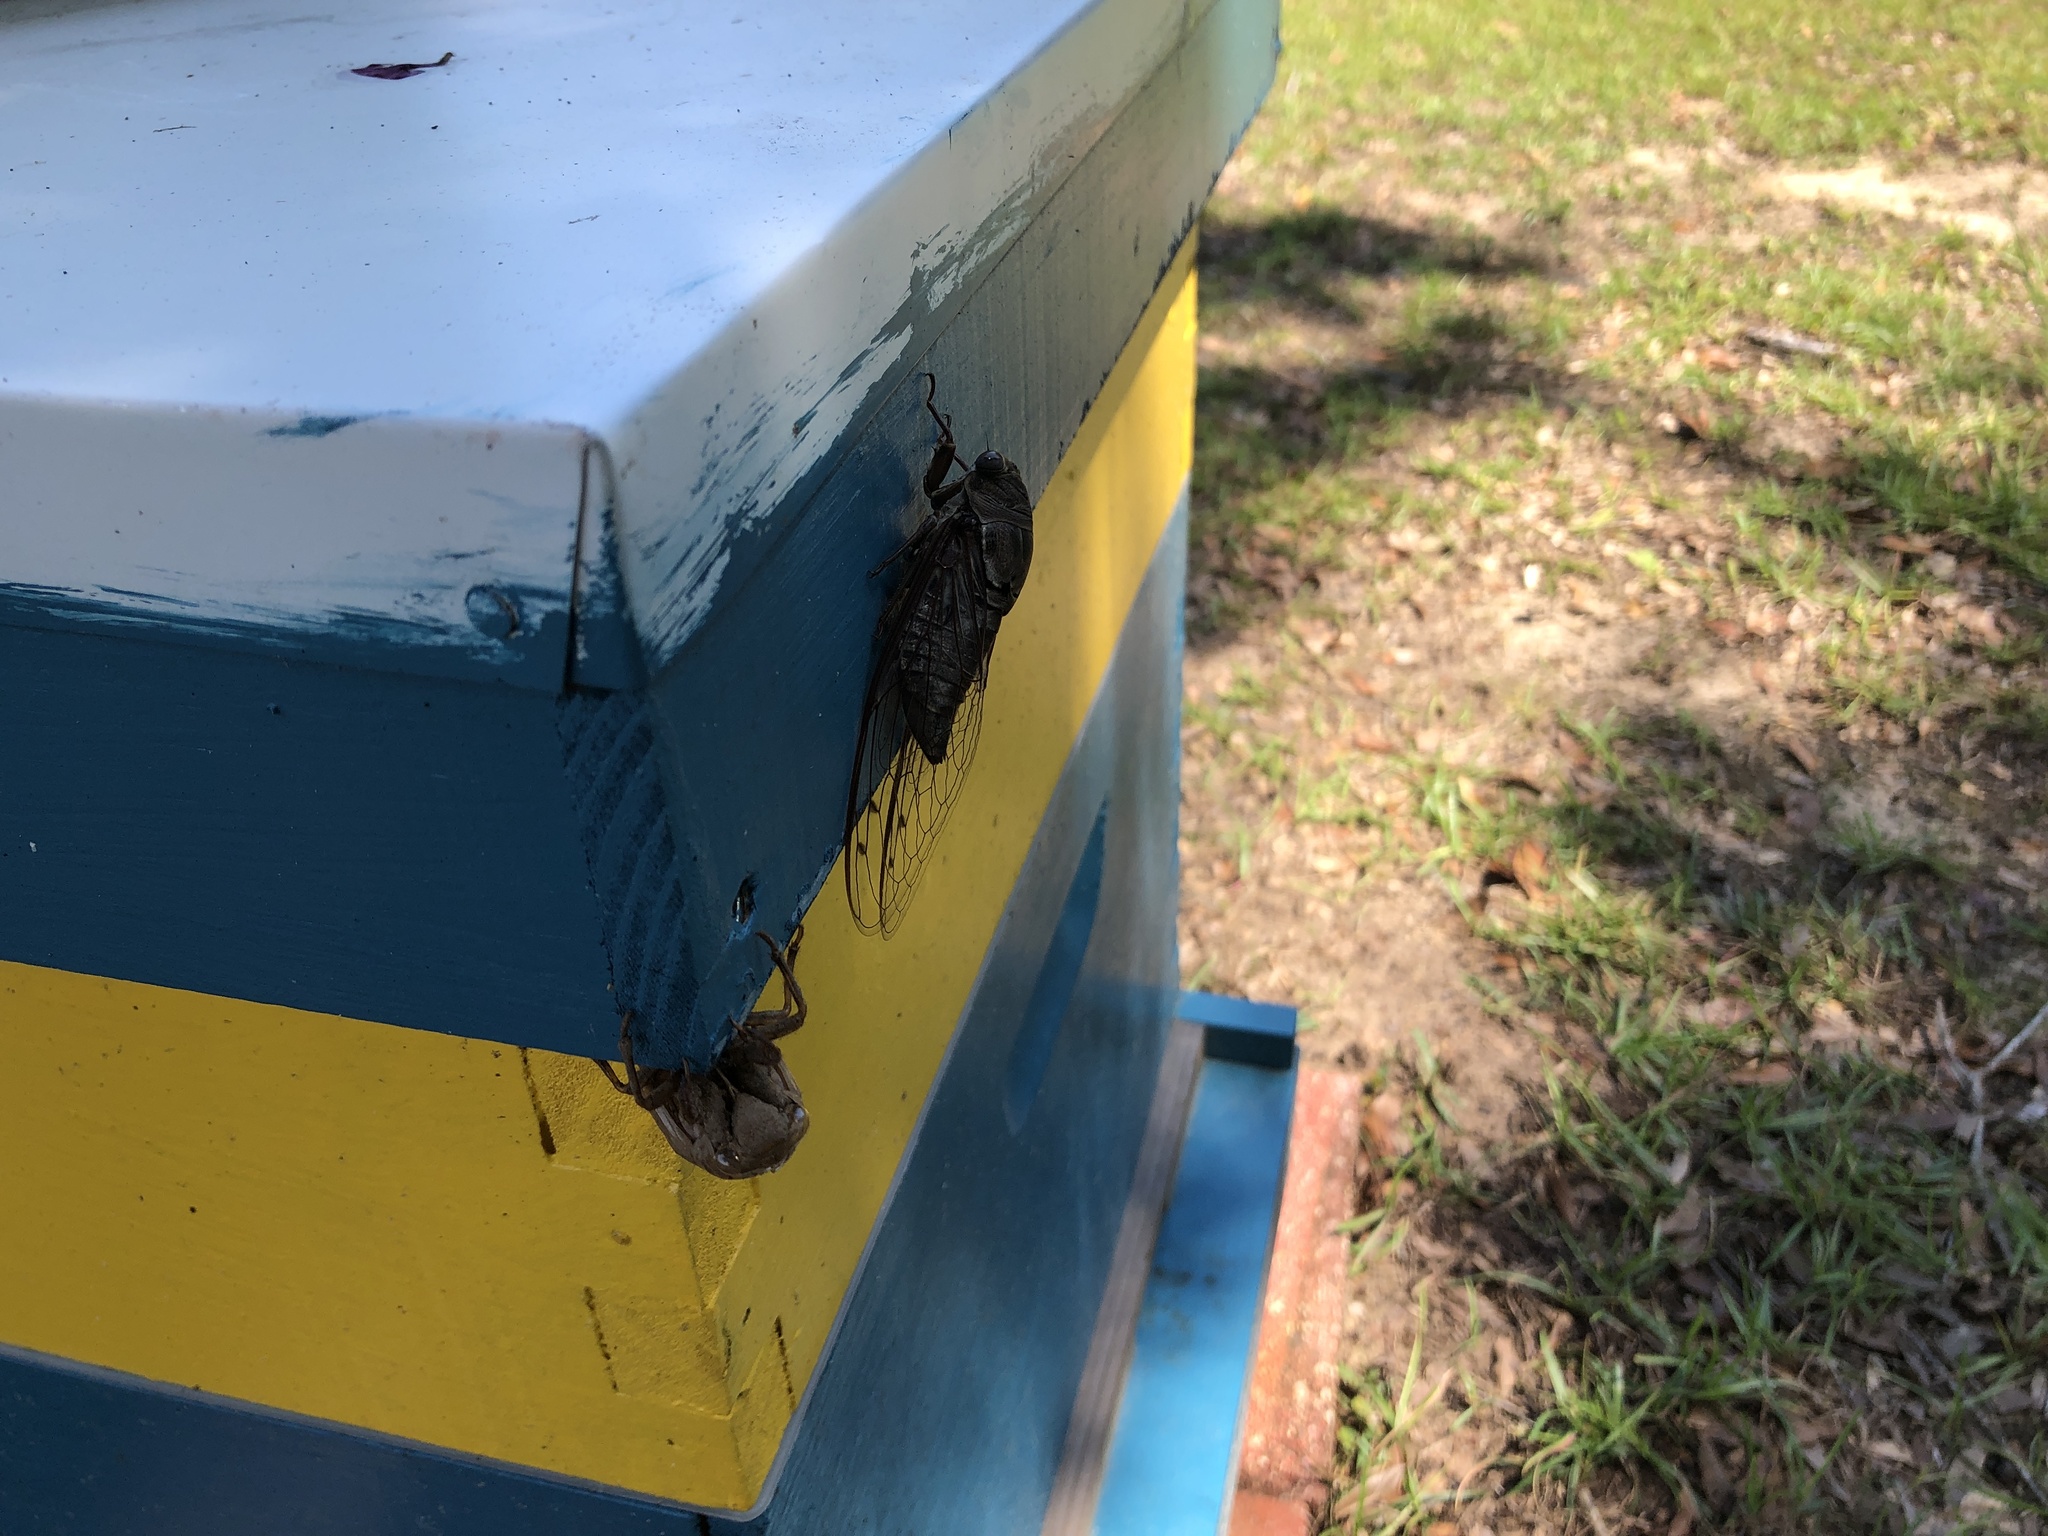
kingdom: Animalia
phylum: Arthropoda
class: Insecta
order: Hemiptera
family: Cicadidae
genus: Megatibicen
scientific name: Megatibicen resonans
